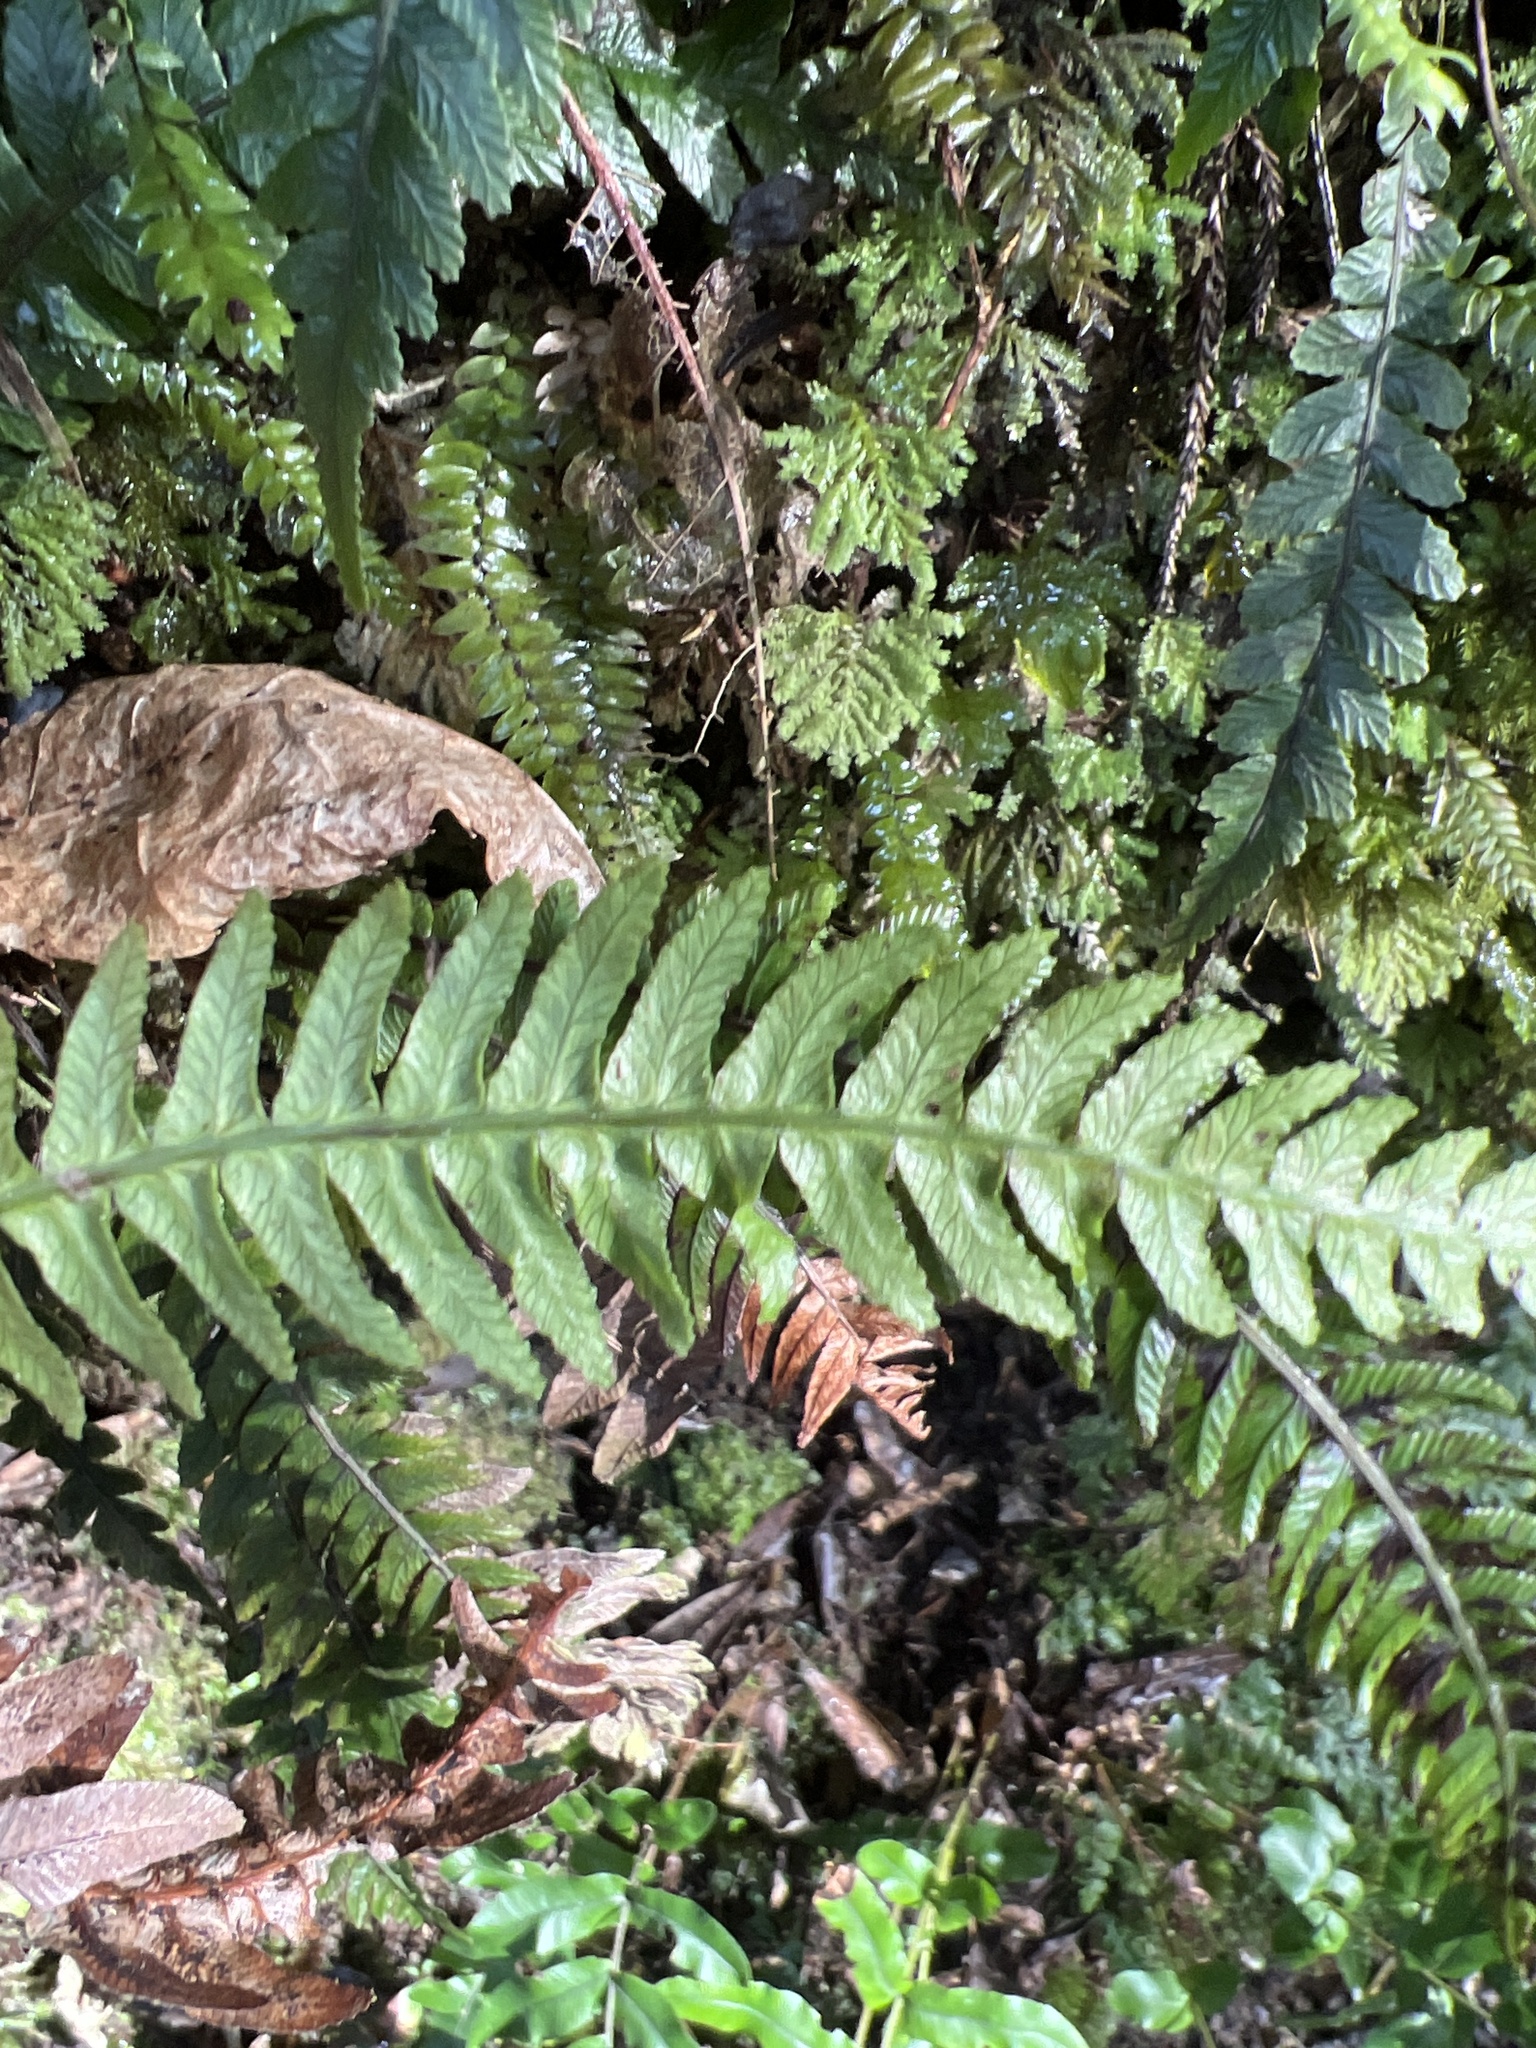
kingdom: Plantae
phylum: Tracheophyta
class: Polypodiopsida
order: Polypodiales
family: Blechnaceae
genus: Austroblechnum
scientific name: Austroblechnum lanceolatum
